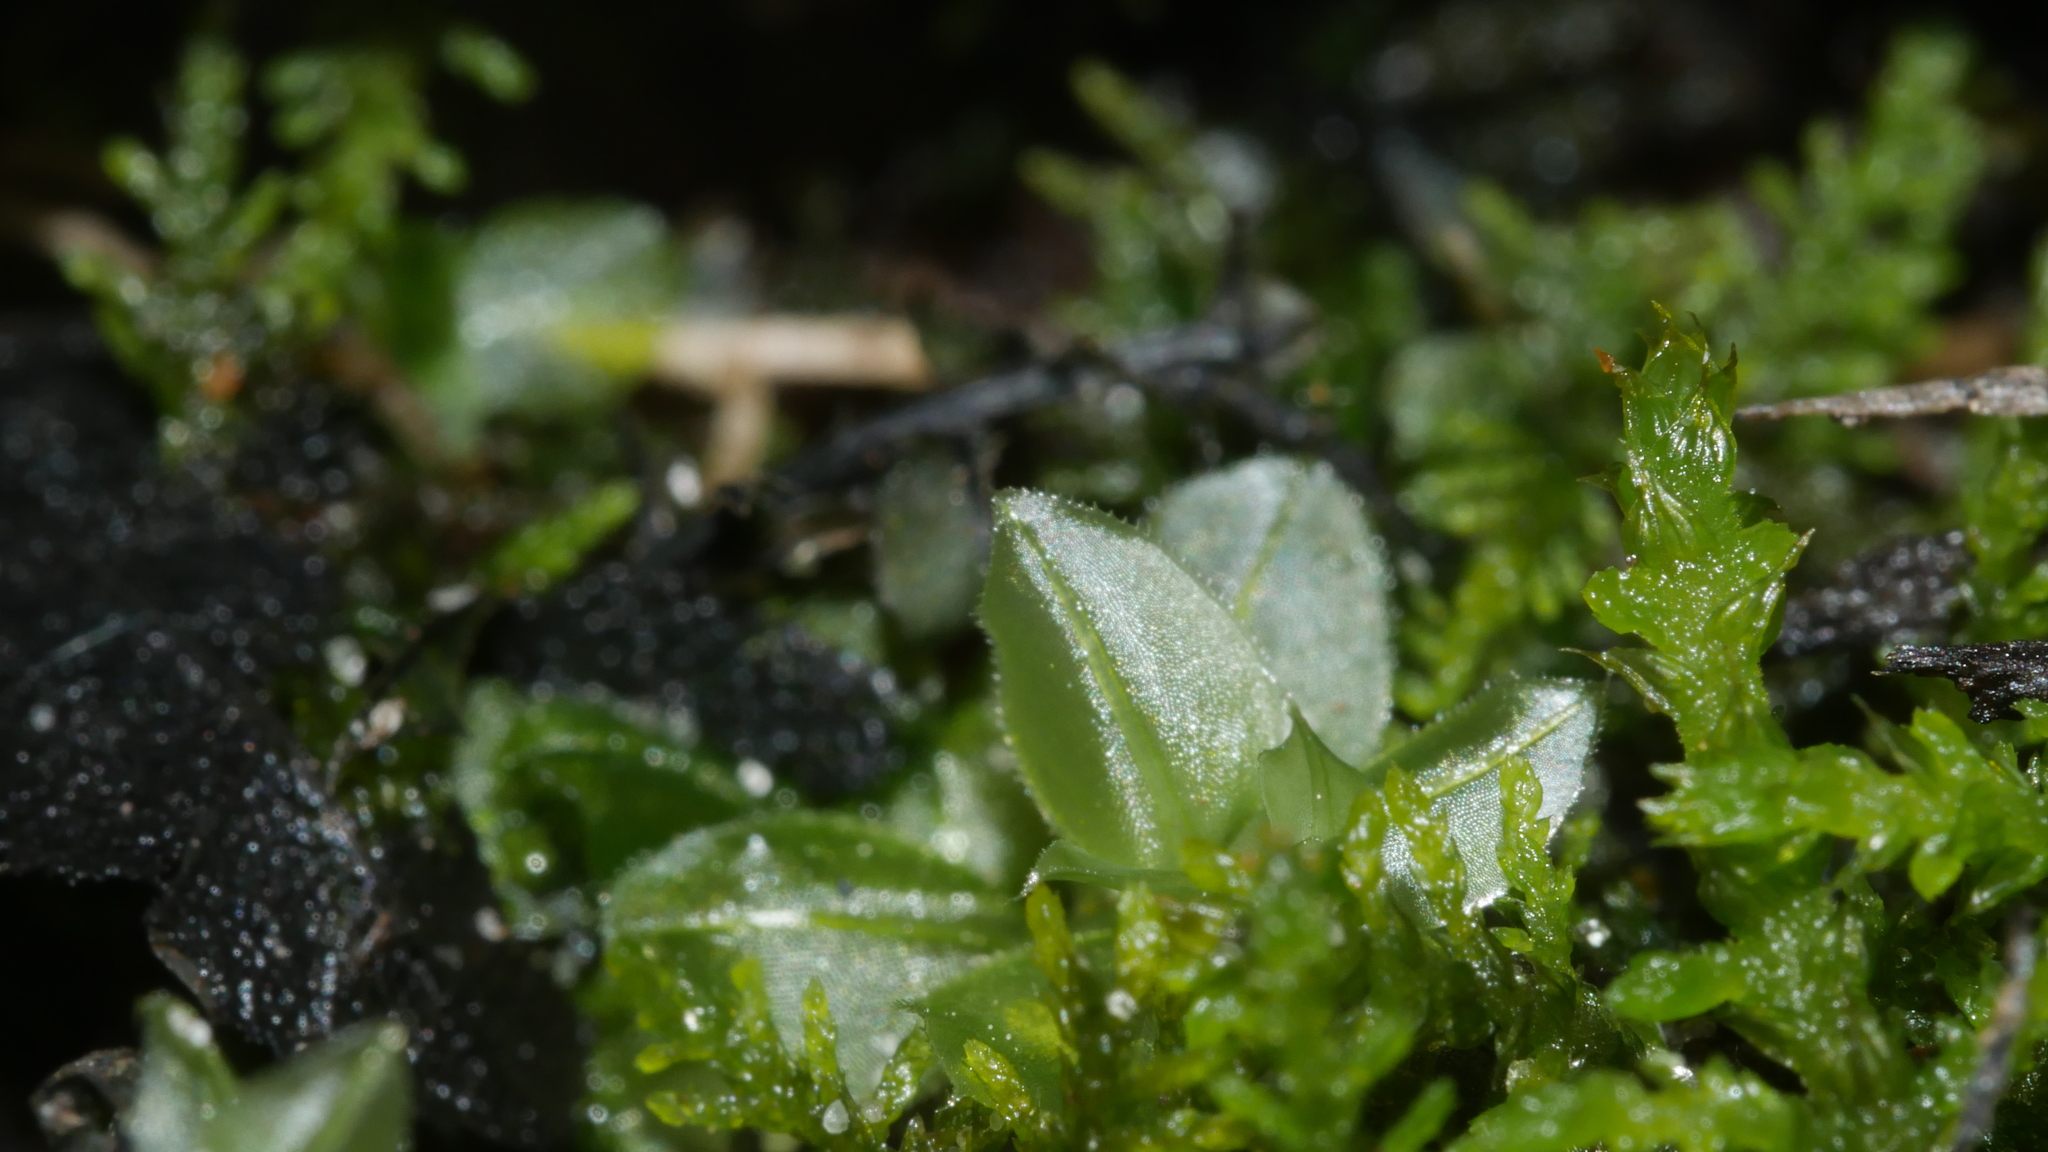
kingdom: Plantae
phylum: Bryophyta
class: Bryopsida
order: Bryales
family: Mniaceae
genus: Plagiomnium
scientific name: Plagiomnium
